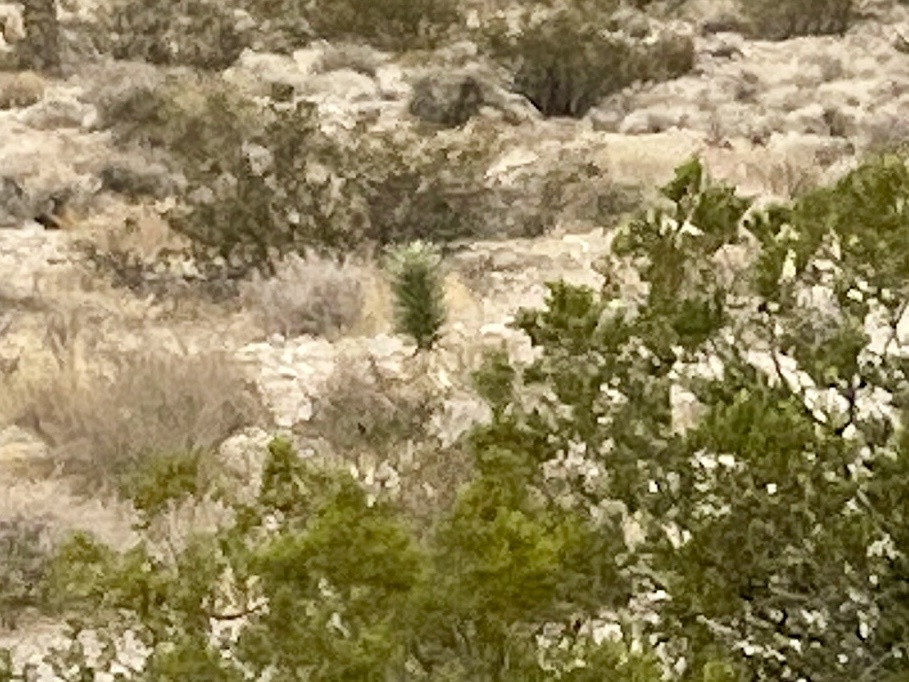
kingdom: Plantae
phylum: Tracheophyta
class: Liliopsida
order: Asparagales
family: Asparagaceae
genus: Yucca
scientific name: Yucca brevifolia
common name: Joshua tree
